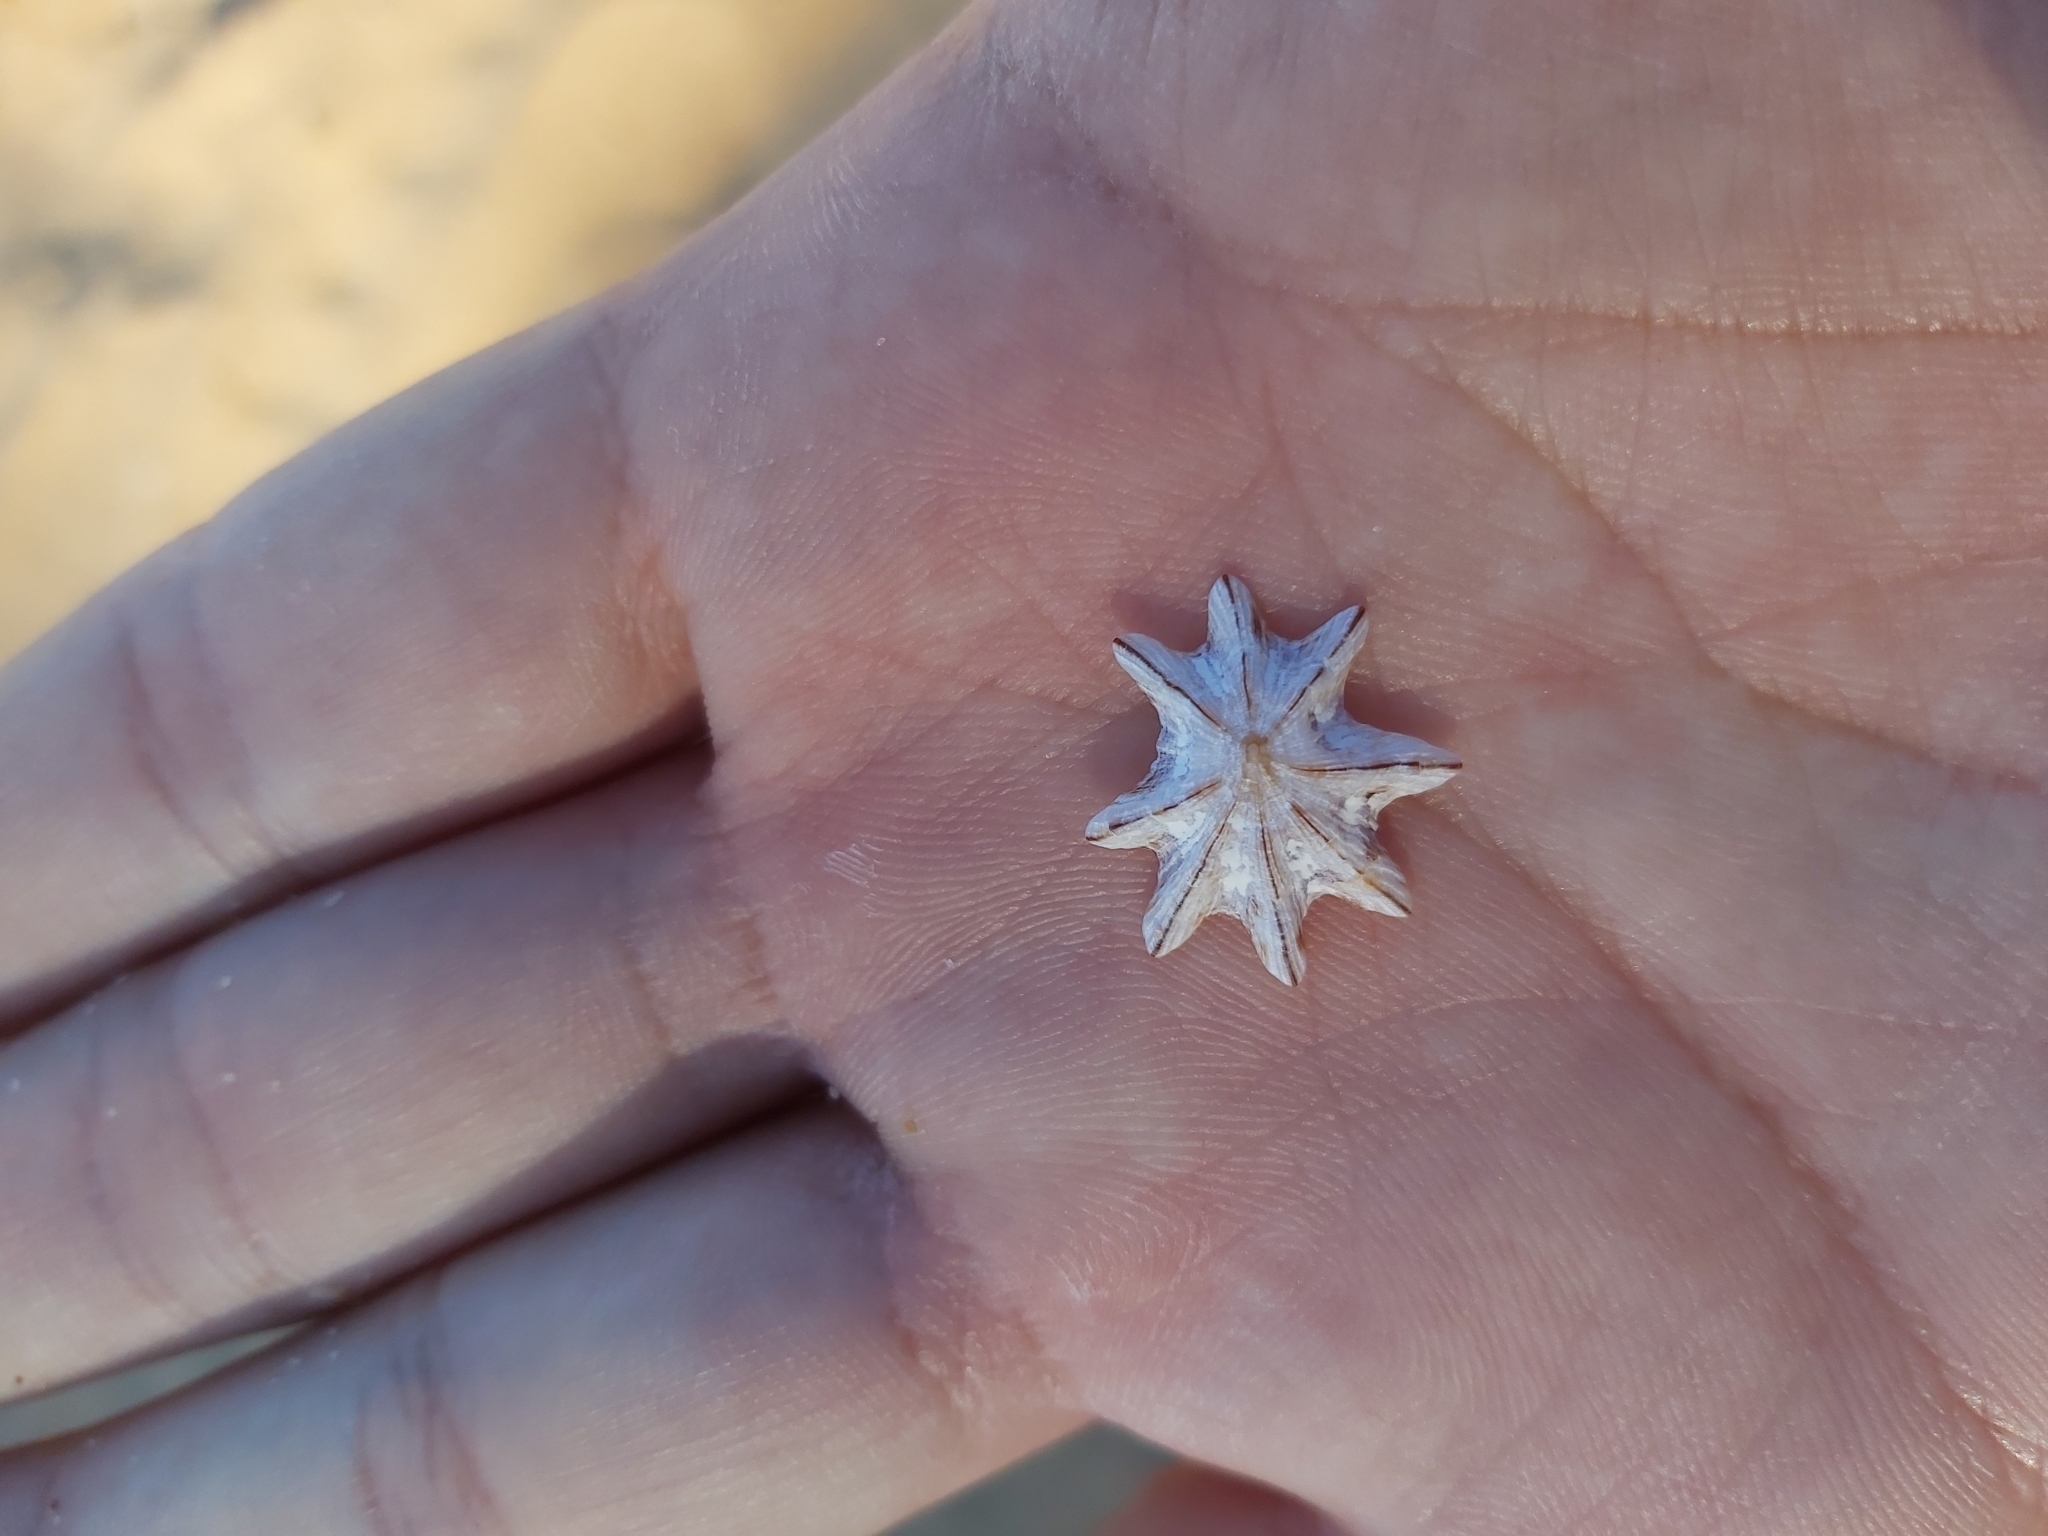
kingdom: Animalia
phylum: Mollusca
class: Gastropoda
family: Patellidae
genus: Scutellastra
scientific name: Scutellastra chapmani
